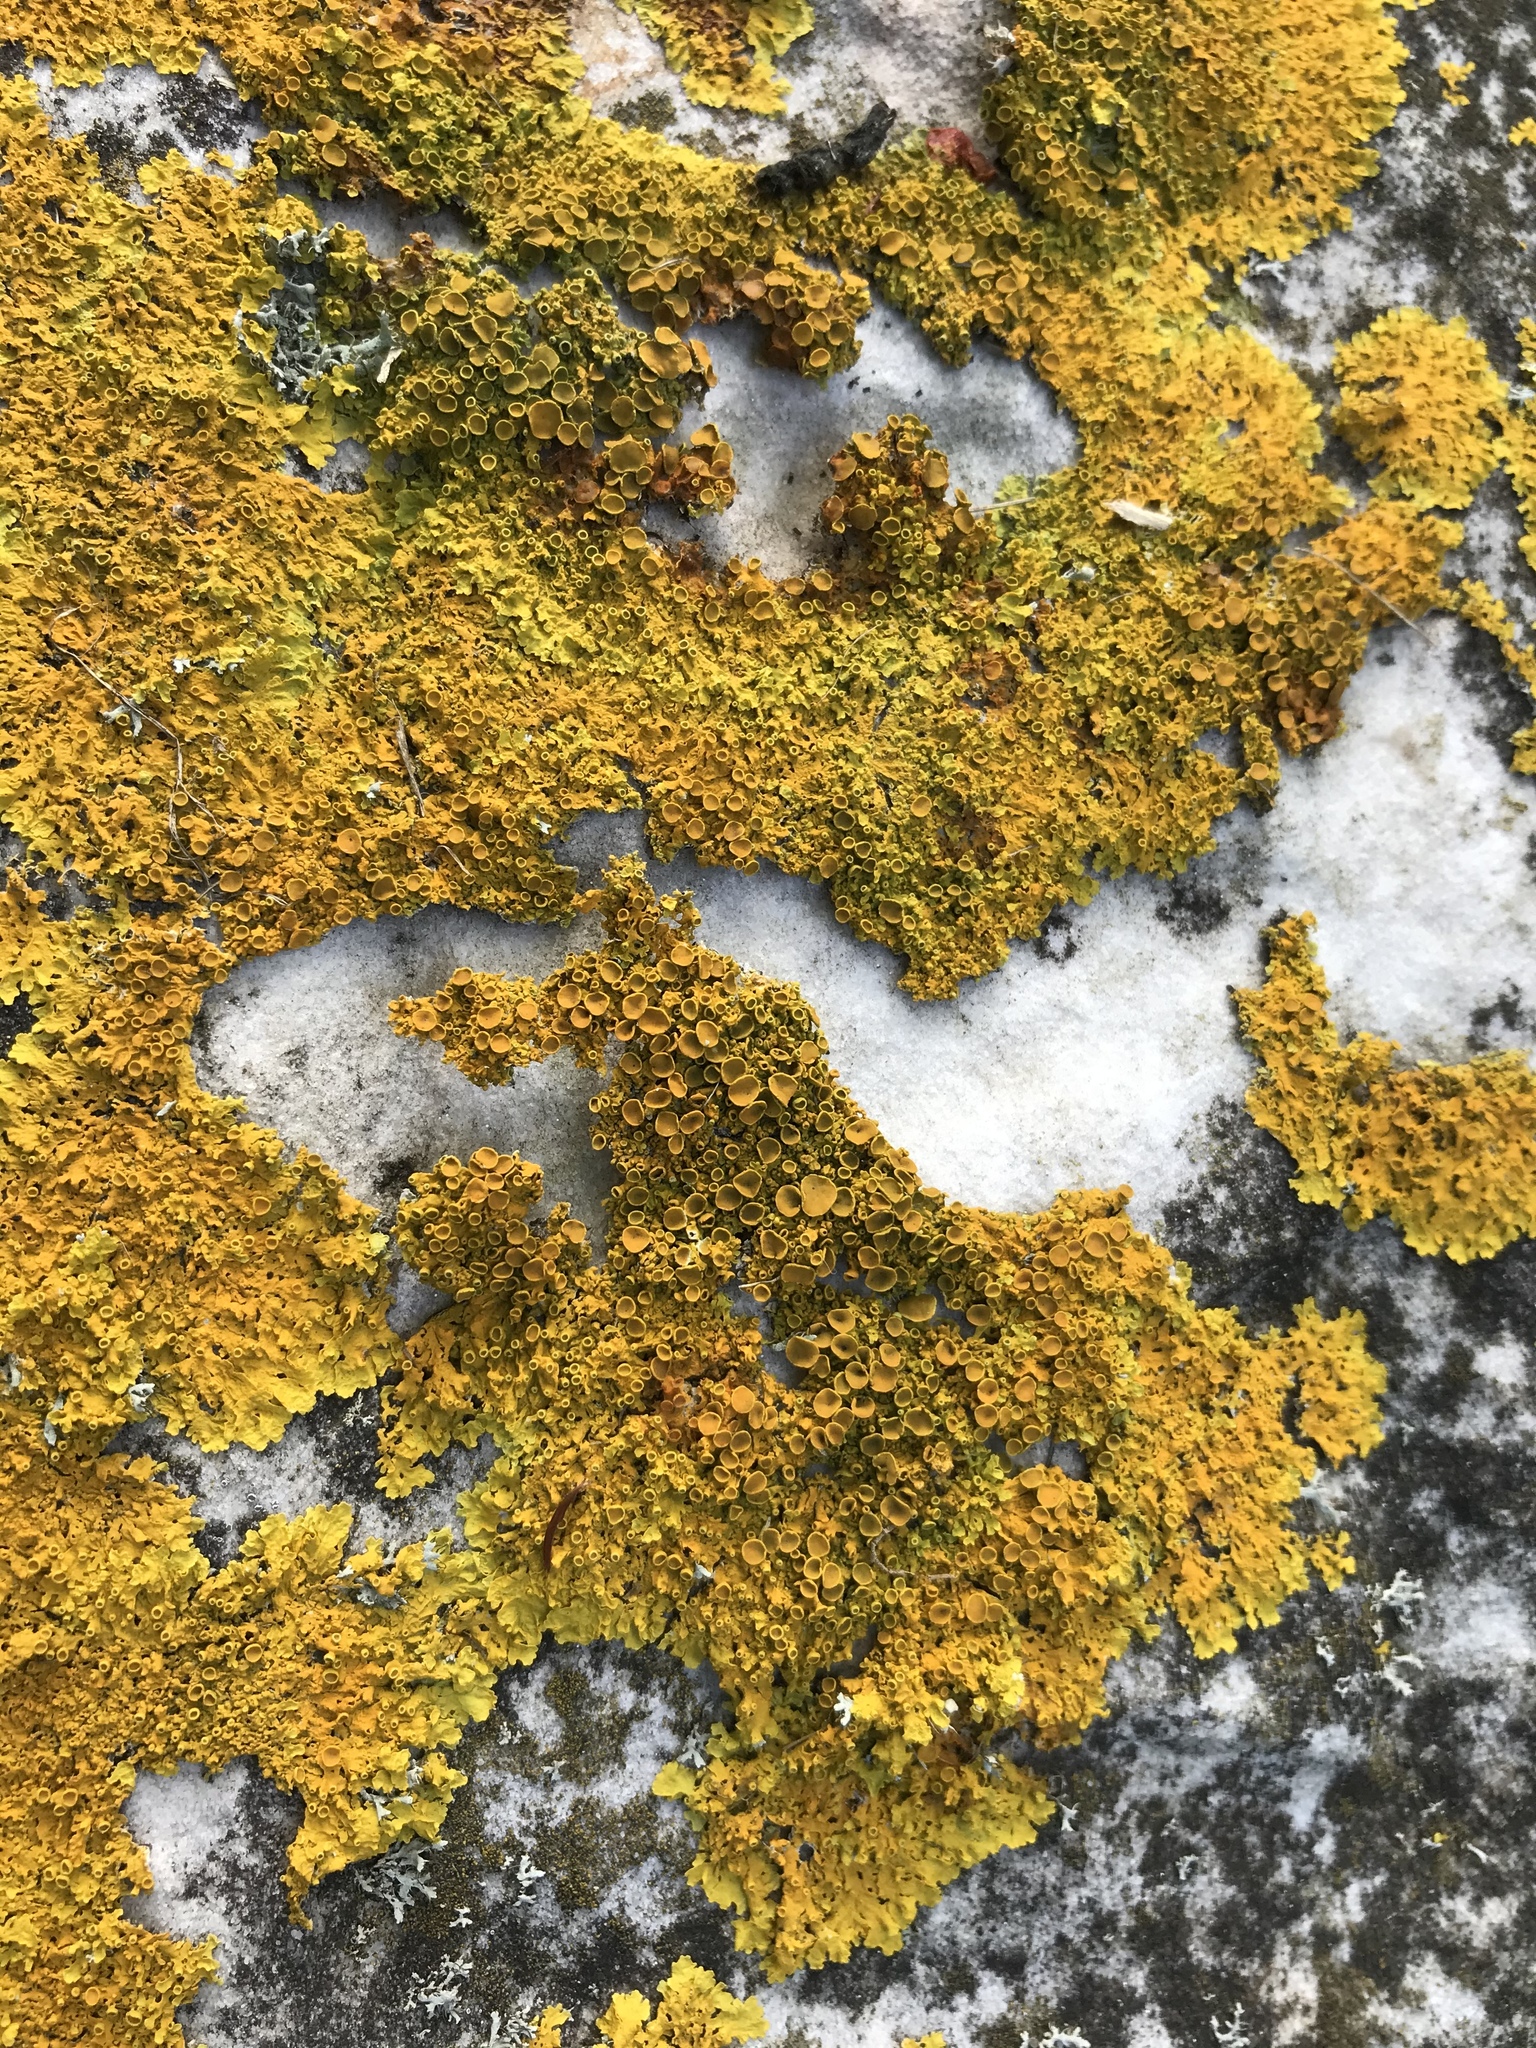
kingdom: Fungi
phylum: Ascomycota
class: Lecanoromycetes
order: Teloschistales
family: Teloschistaceae
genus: Xanthoria
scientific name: Xanthoria parietina
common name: Common orange lichen
